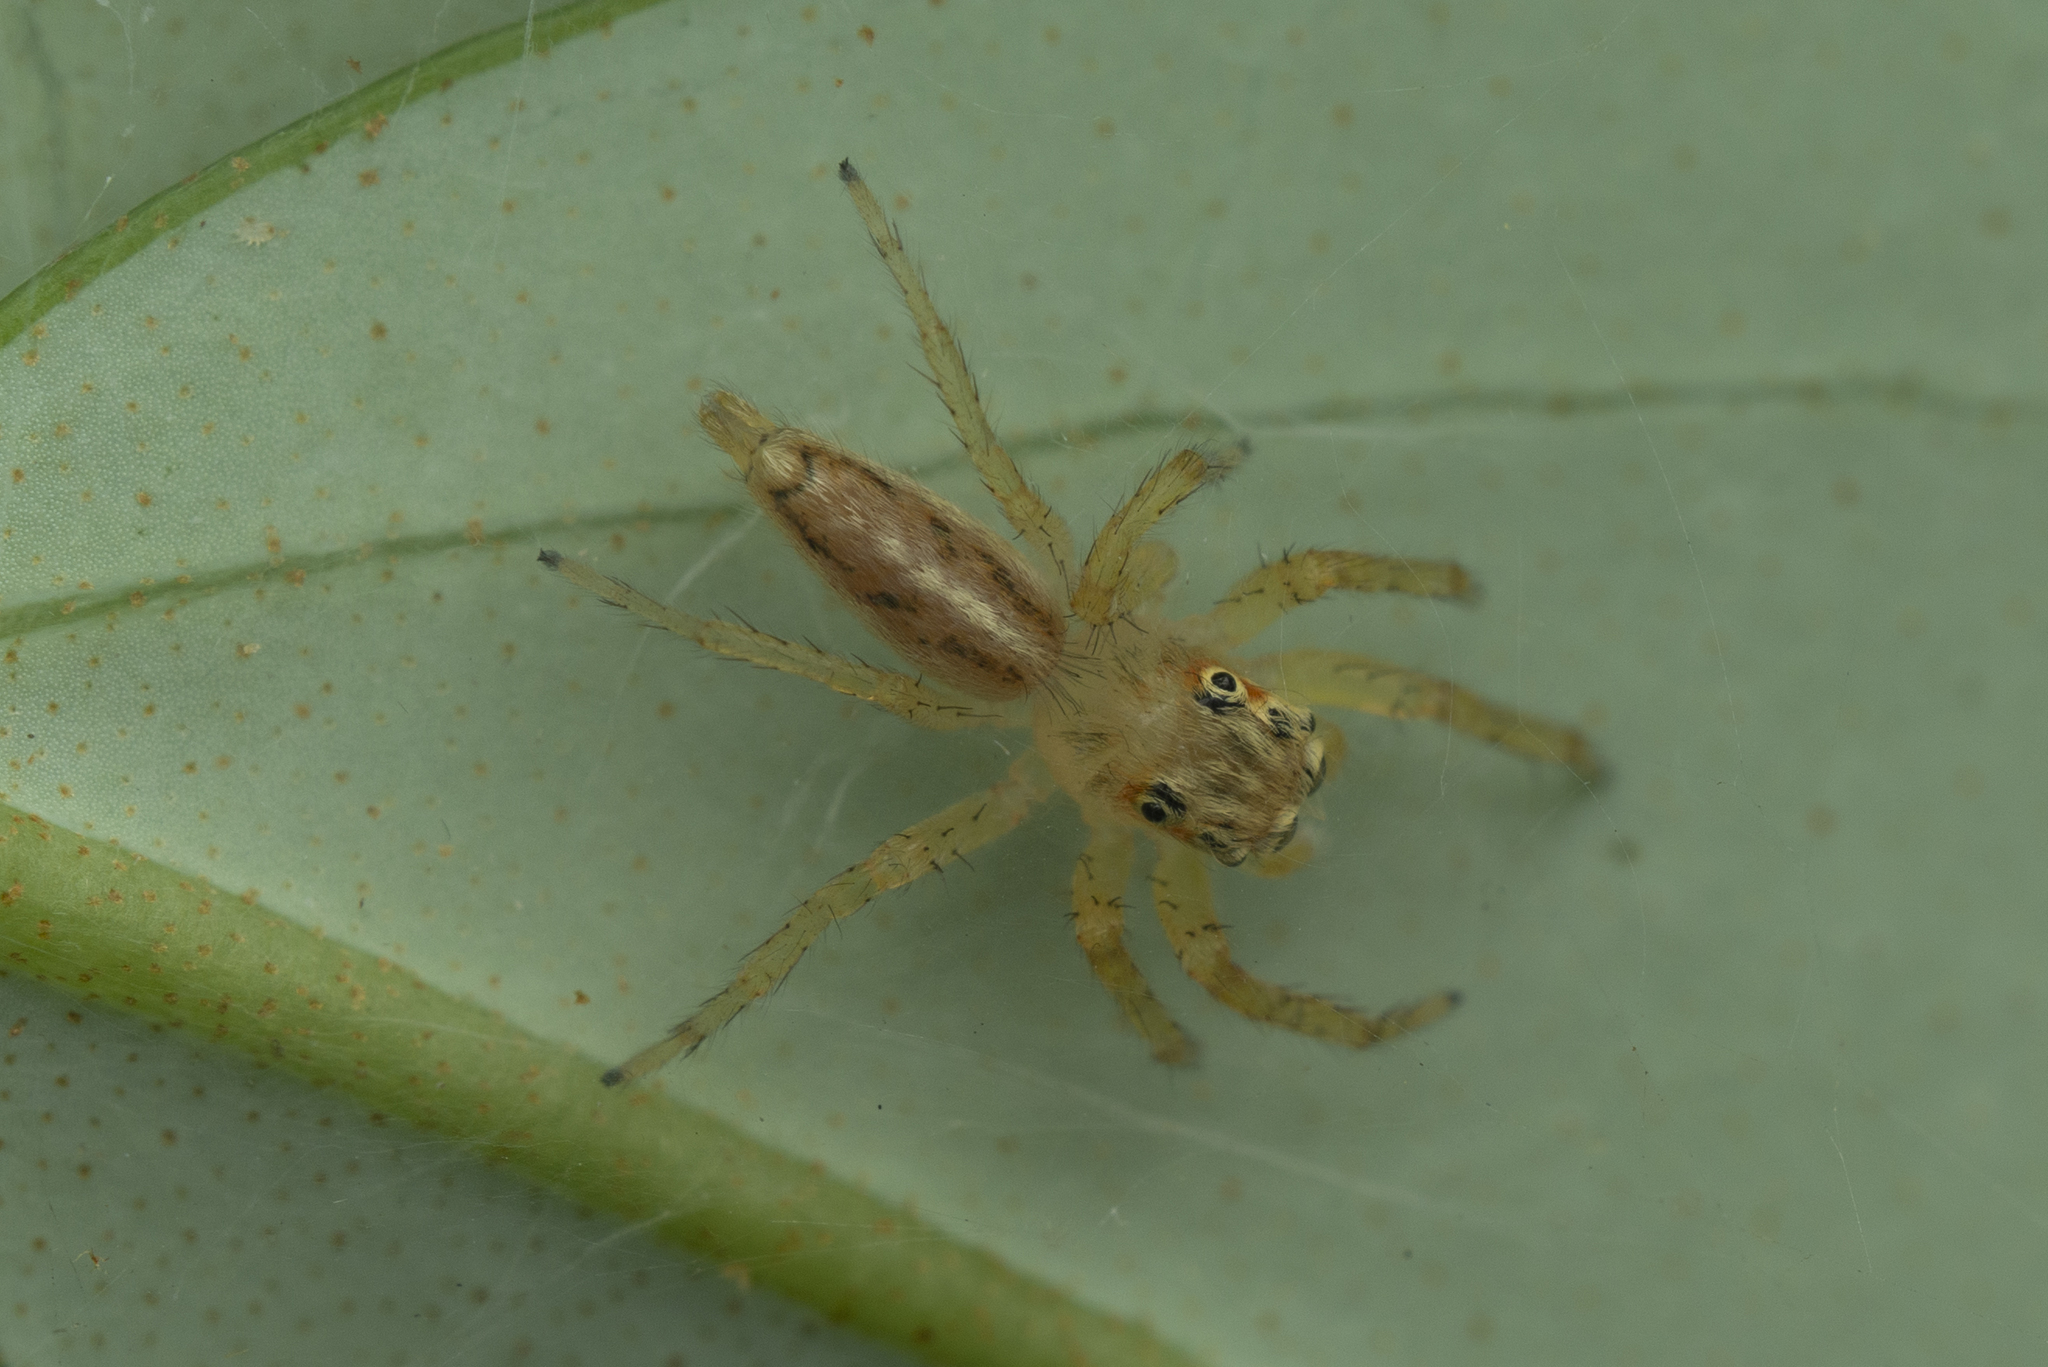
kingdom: Animalia
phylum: Arthropoda
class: Arachnida
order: Araneae
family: Salticidae
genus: Telamonia
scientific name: Telamonia caprina
